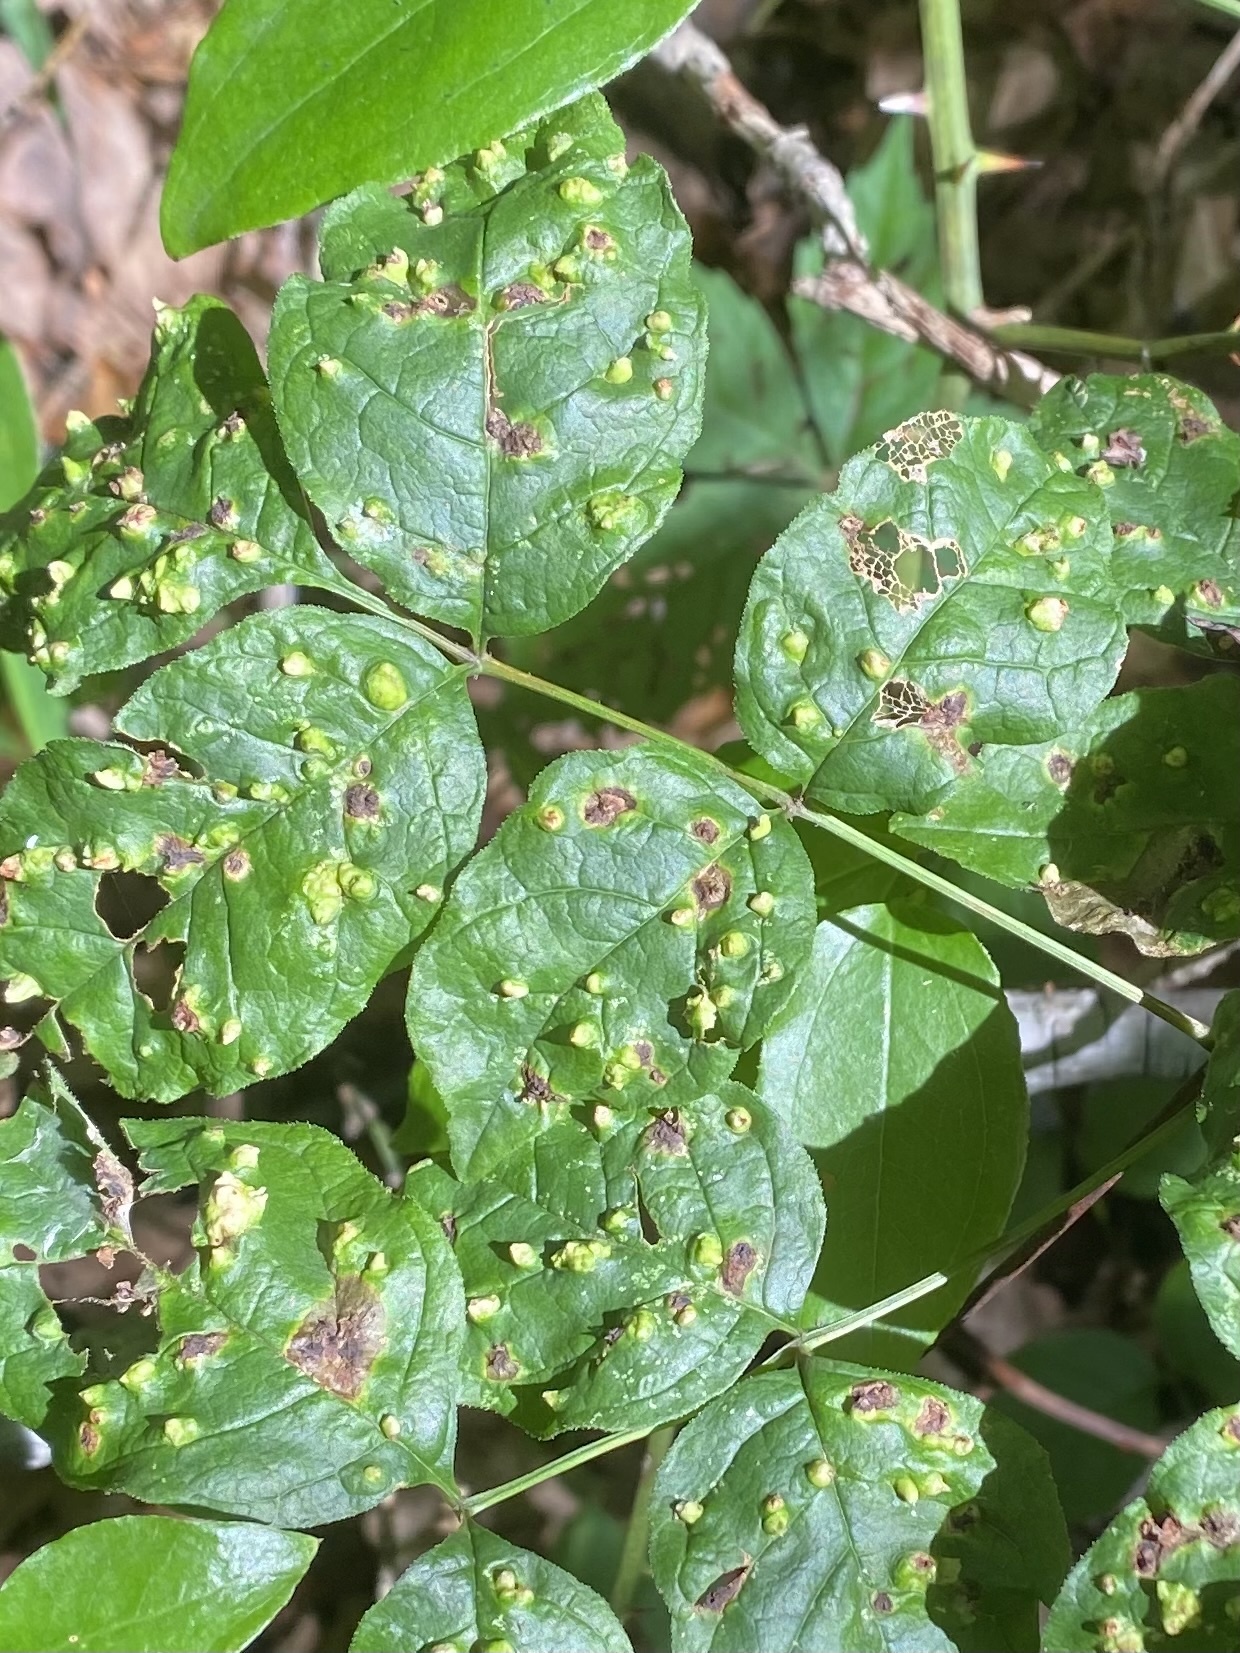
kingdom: Animalia
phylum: Arthropoda
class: Arachnida
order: Trombidiformes
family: Eriophyidae
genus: Aceria
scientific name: Aceria fraxinicola
